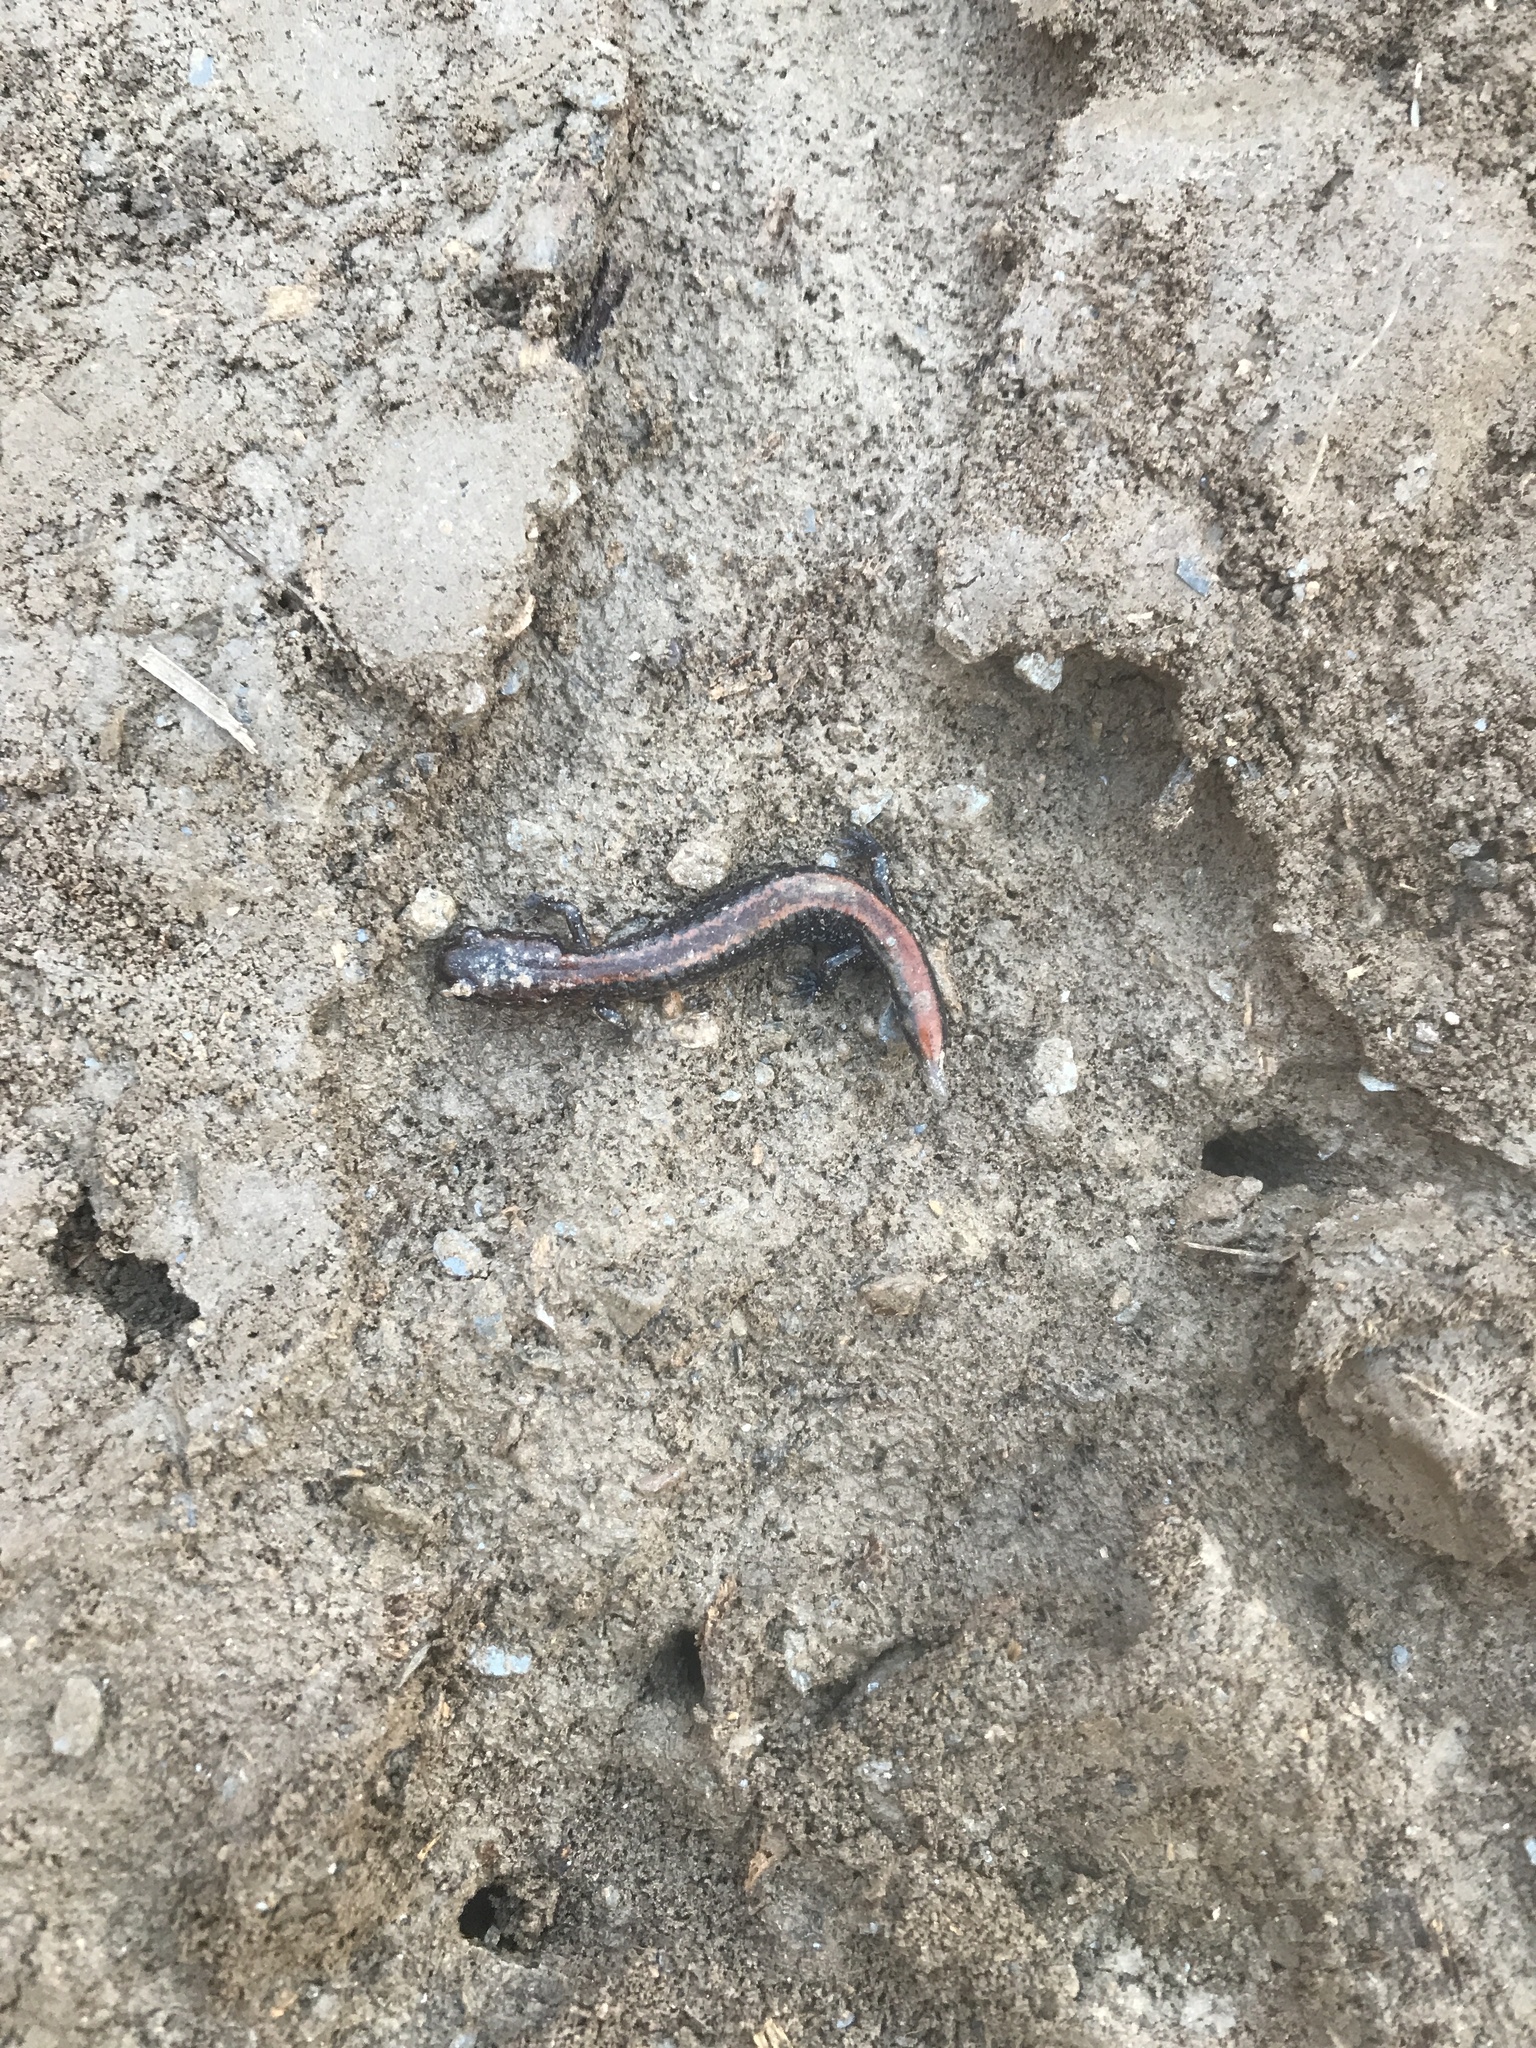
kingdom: Animalia
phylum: Chordata
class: Amphibia
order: Caudata
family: Plethodontidae
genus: Plethodon
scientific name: Plethodon cinereus
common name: Redback salamander
